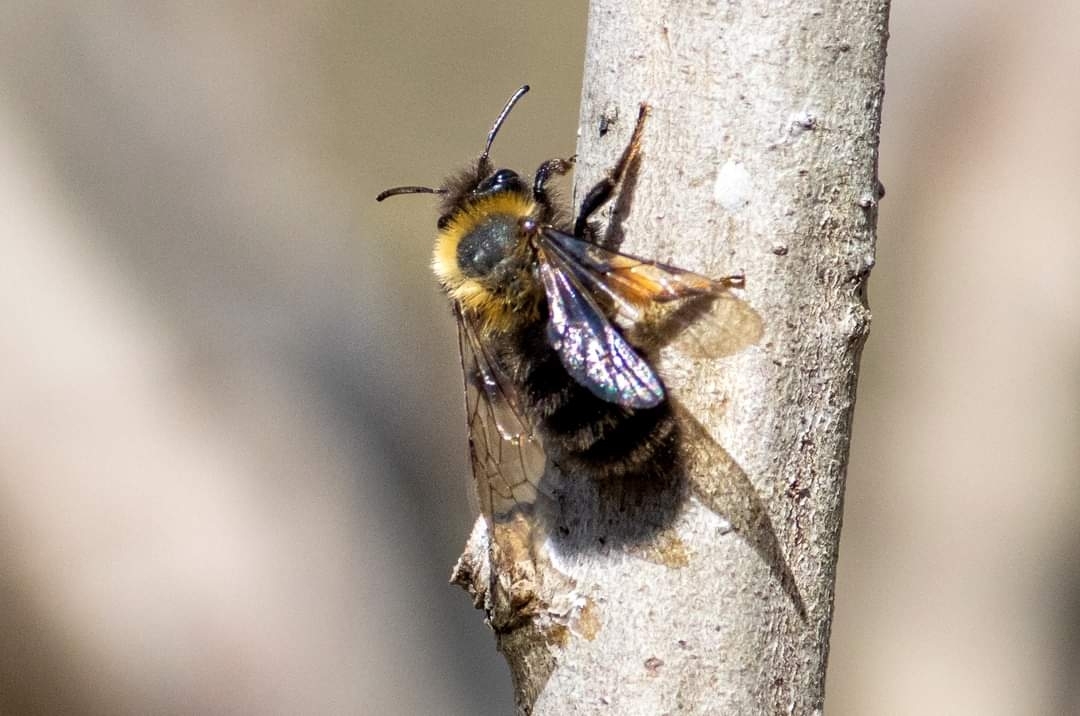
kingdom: Animalia
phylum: Arthropoda
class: Insecta
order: Hymenoptera
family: Andrenidae
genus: Andrena
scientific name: Andrena clarkella
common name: Clarke's mining bee
